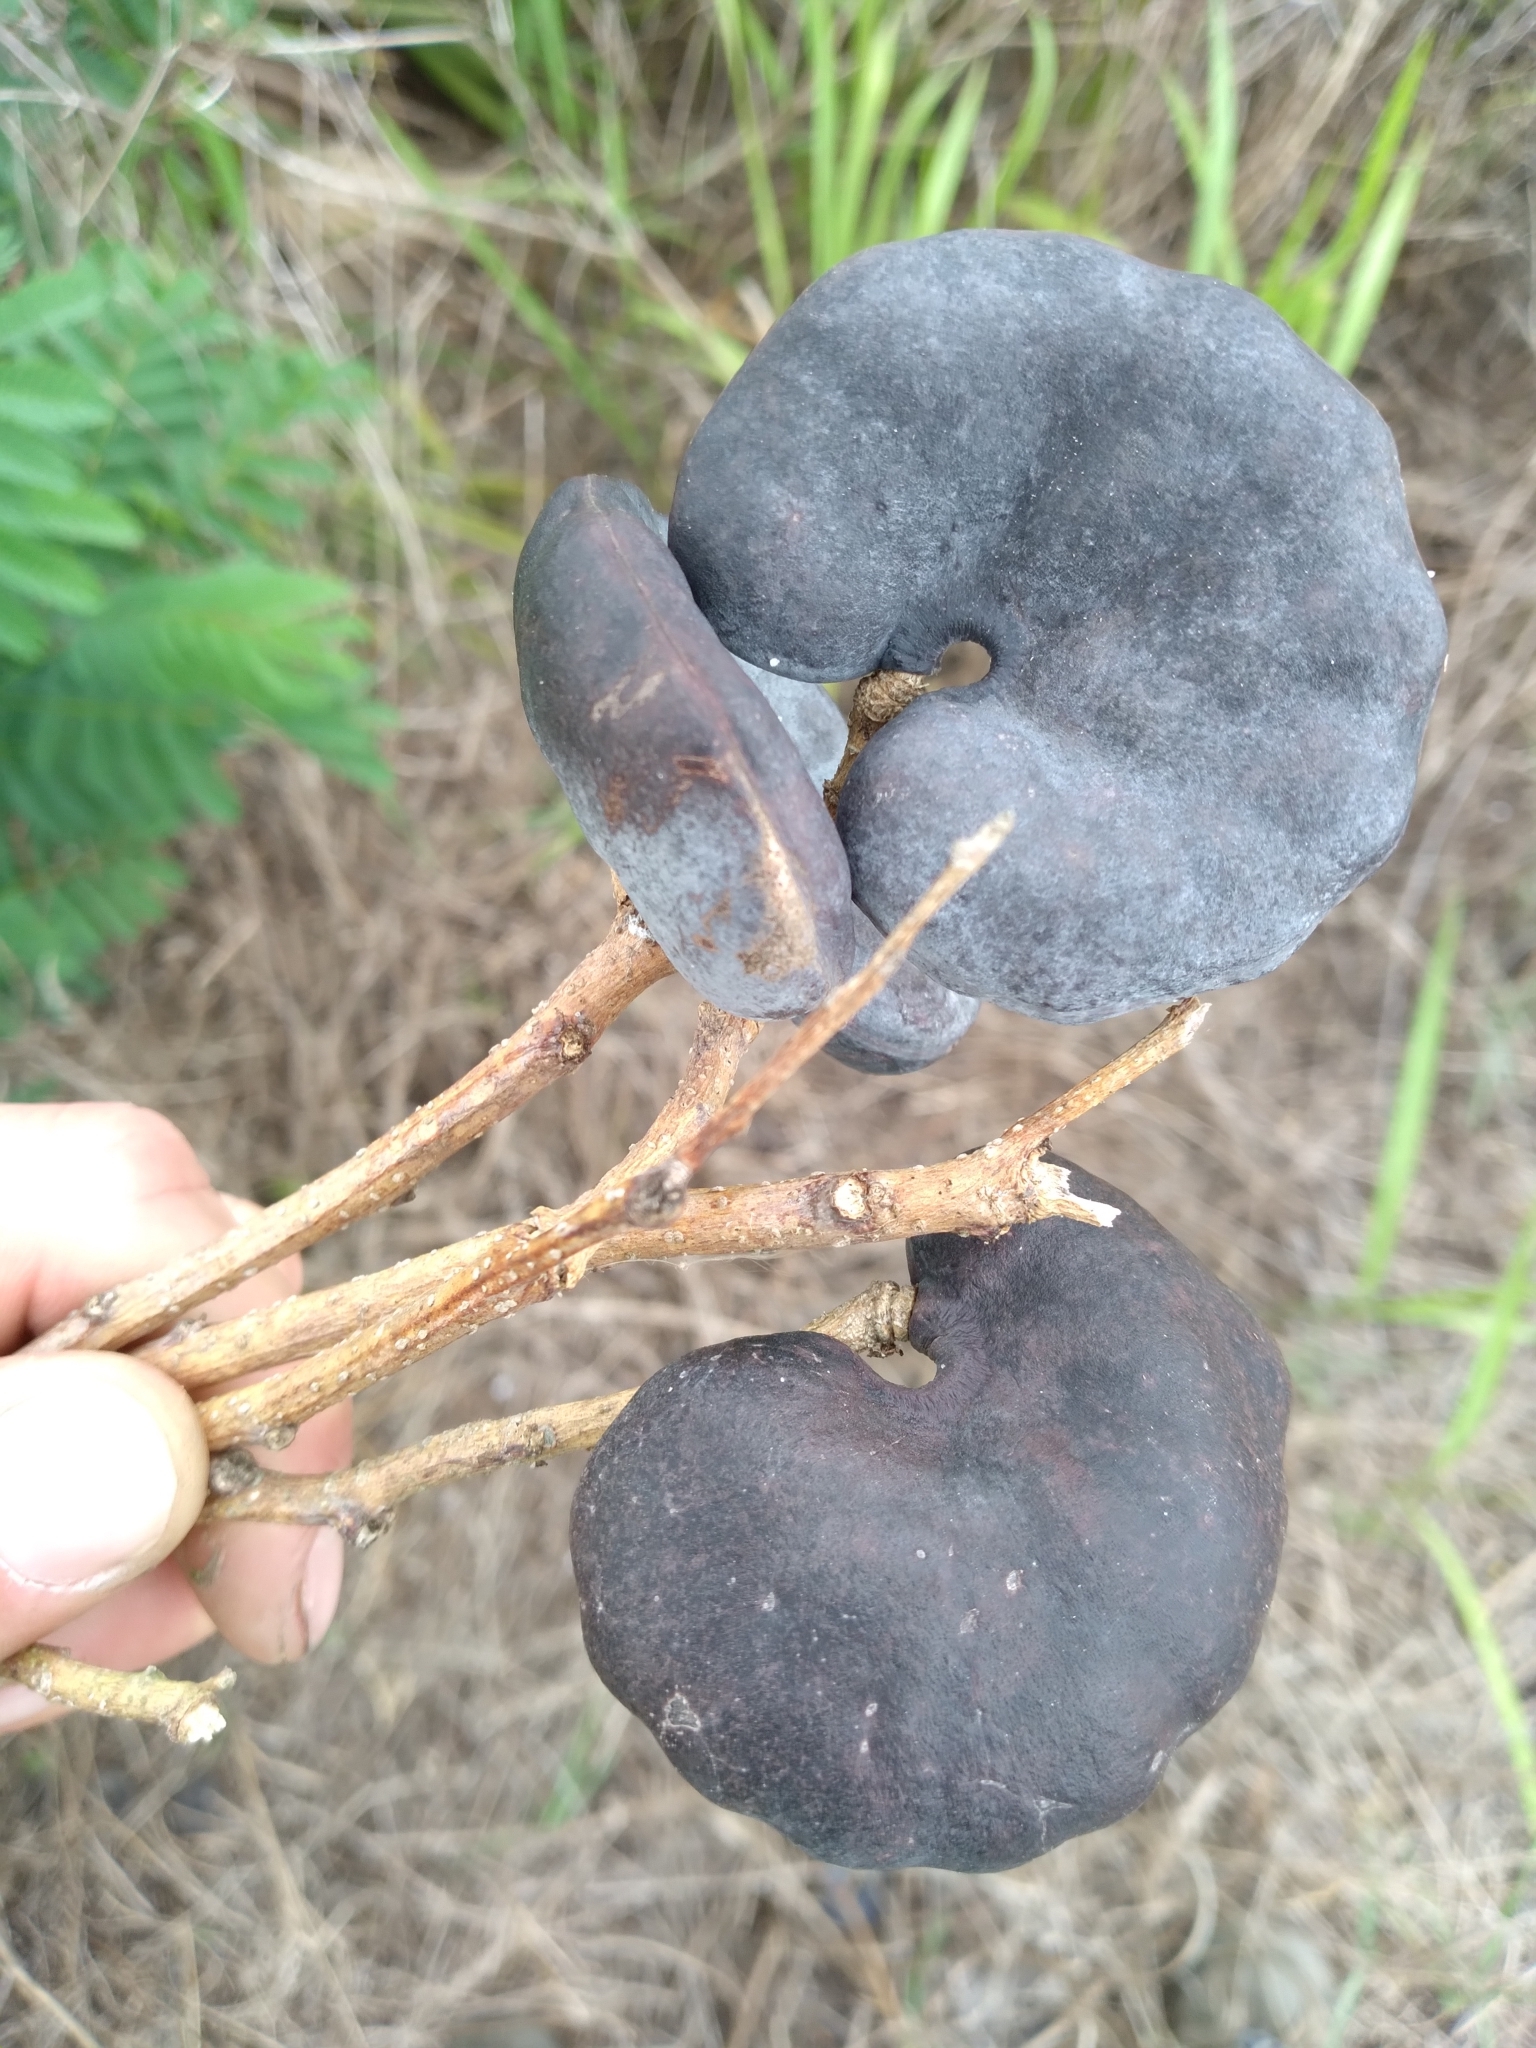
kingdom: Plantae
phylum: Tracheophyta
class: Magnoliopsida
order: Fabales
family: Fabaceae
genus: Enterolobium
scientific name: Enterolobium contortisiliquum
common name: Pacara earpod tree
